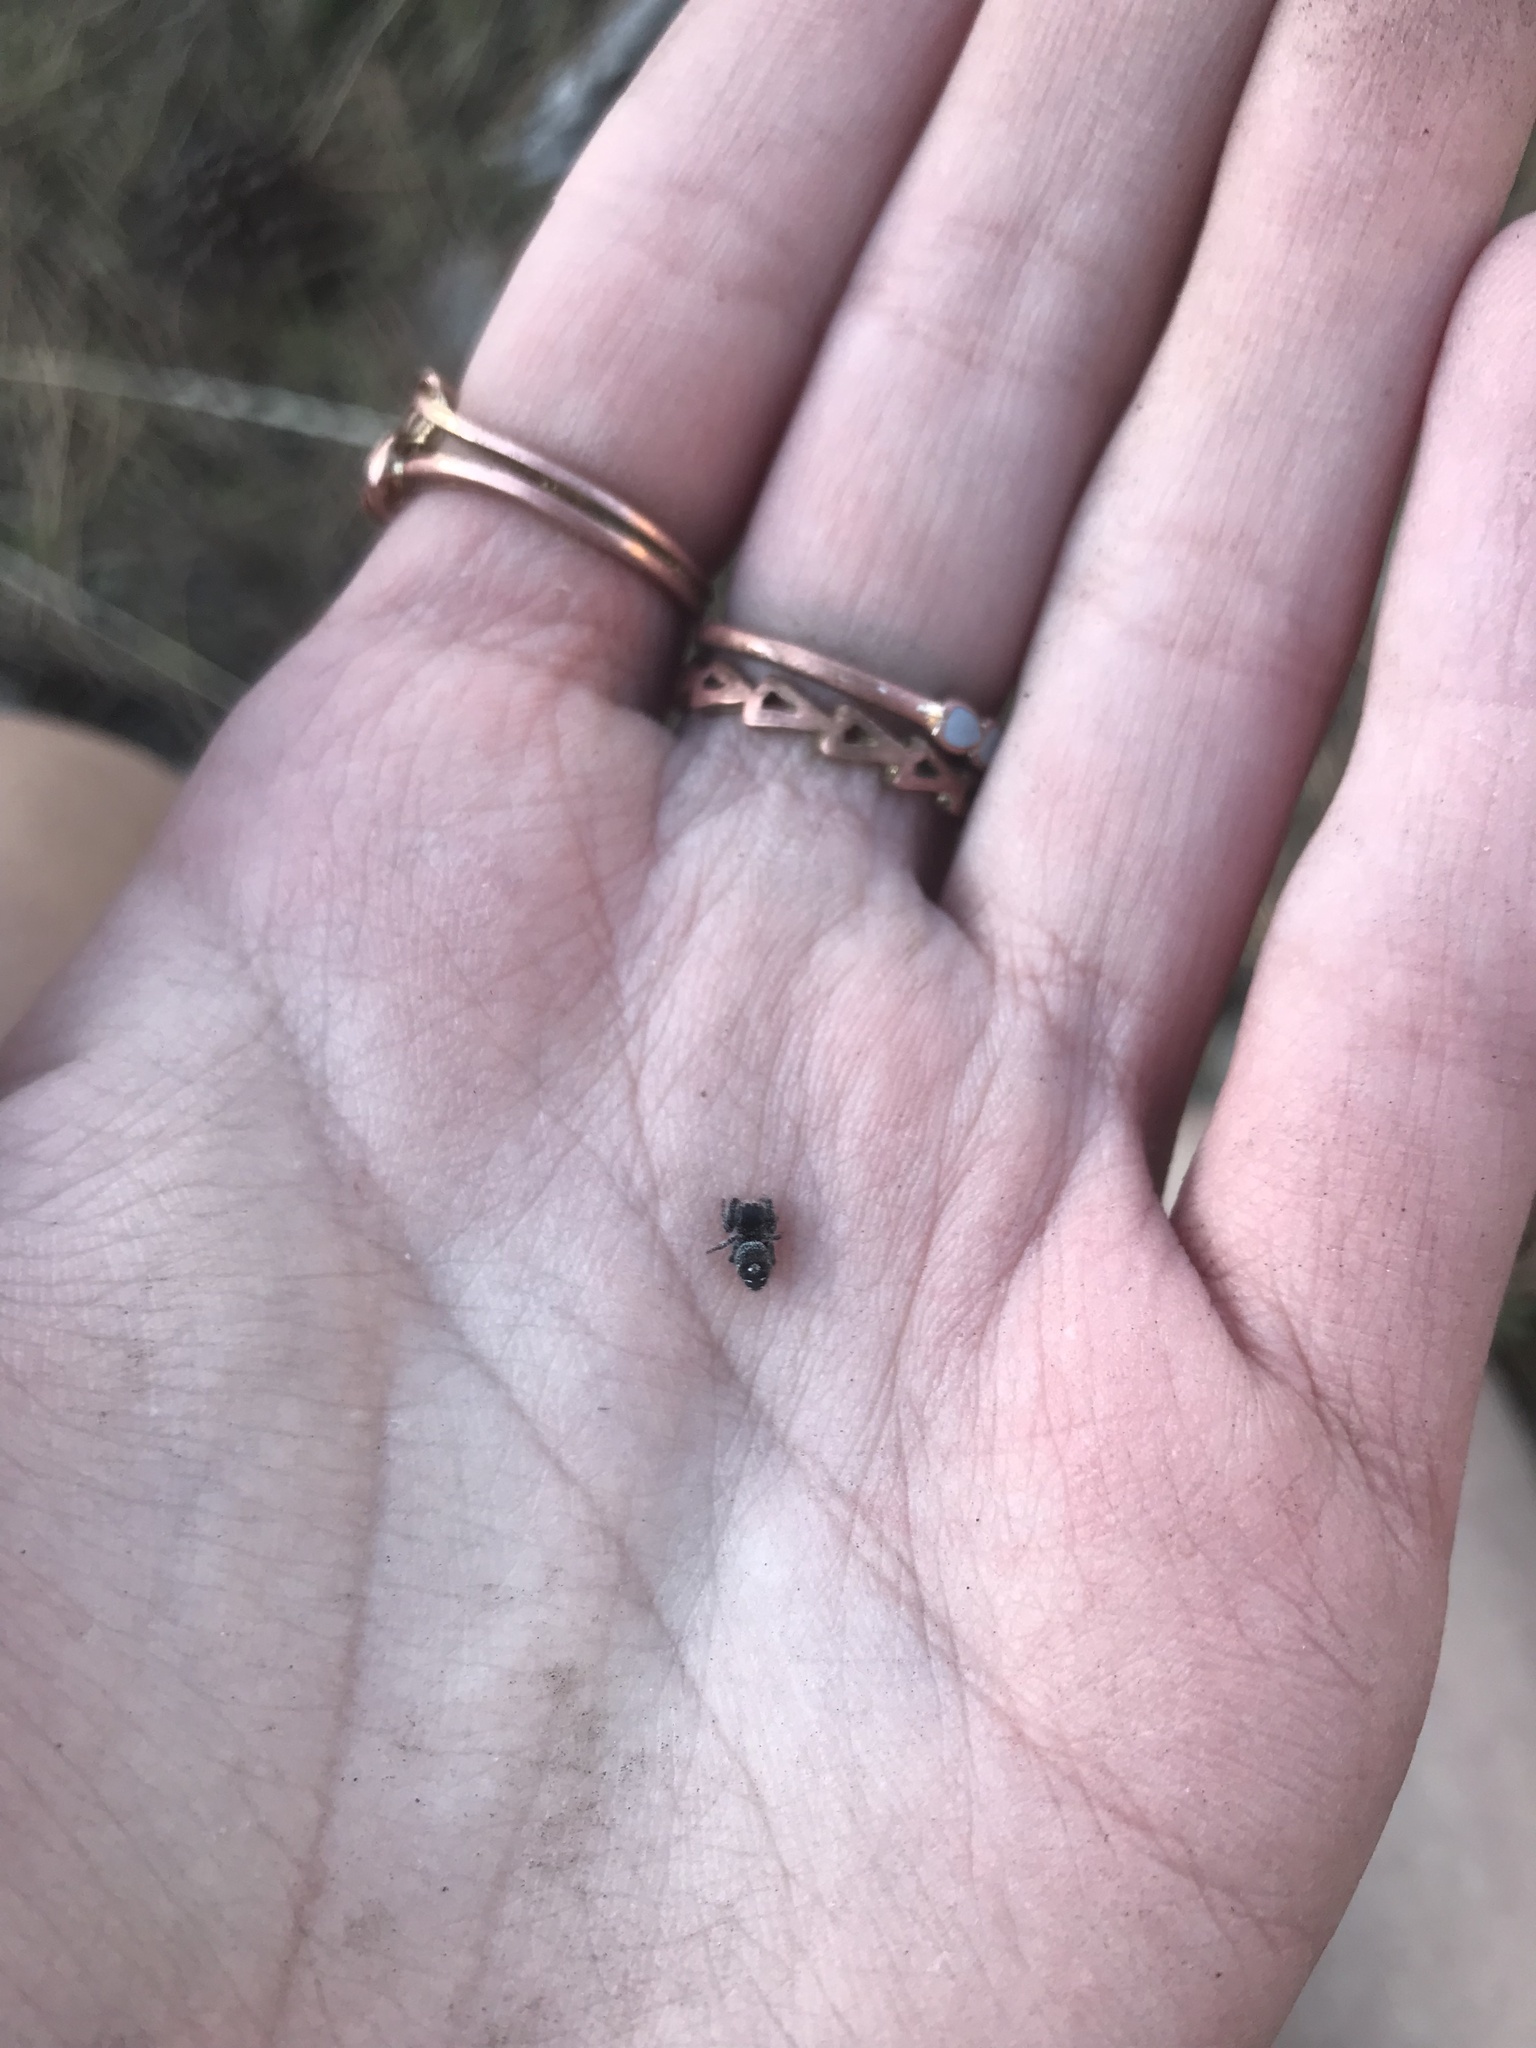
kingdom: Animalia
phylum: Arthropoda
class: Arachnida
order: Araneae
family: Salticidae
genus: Phidippus
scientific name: Phidippus johnsoni
